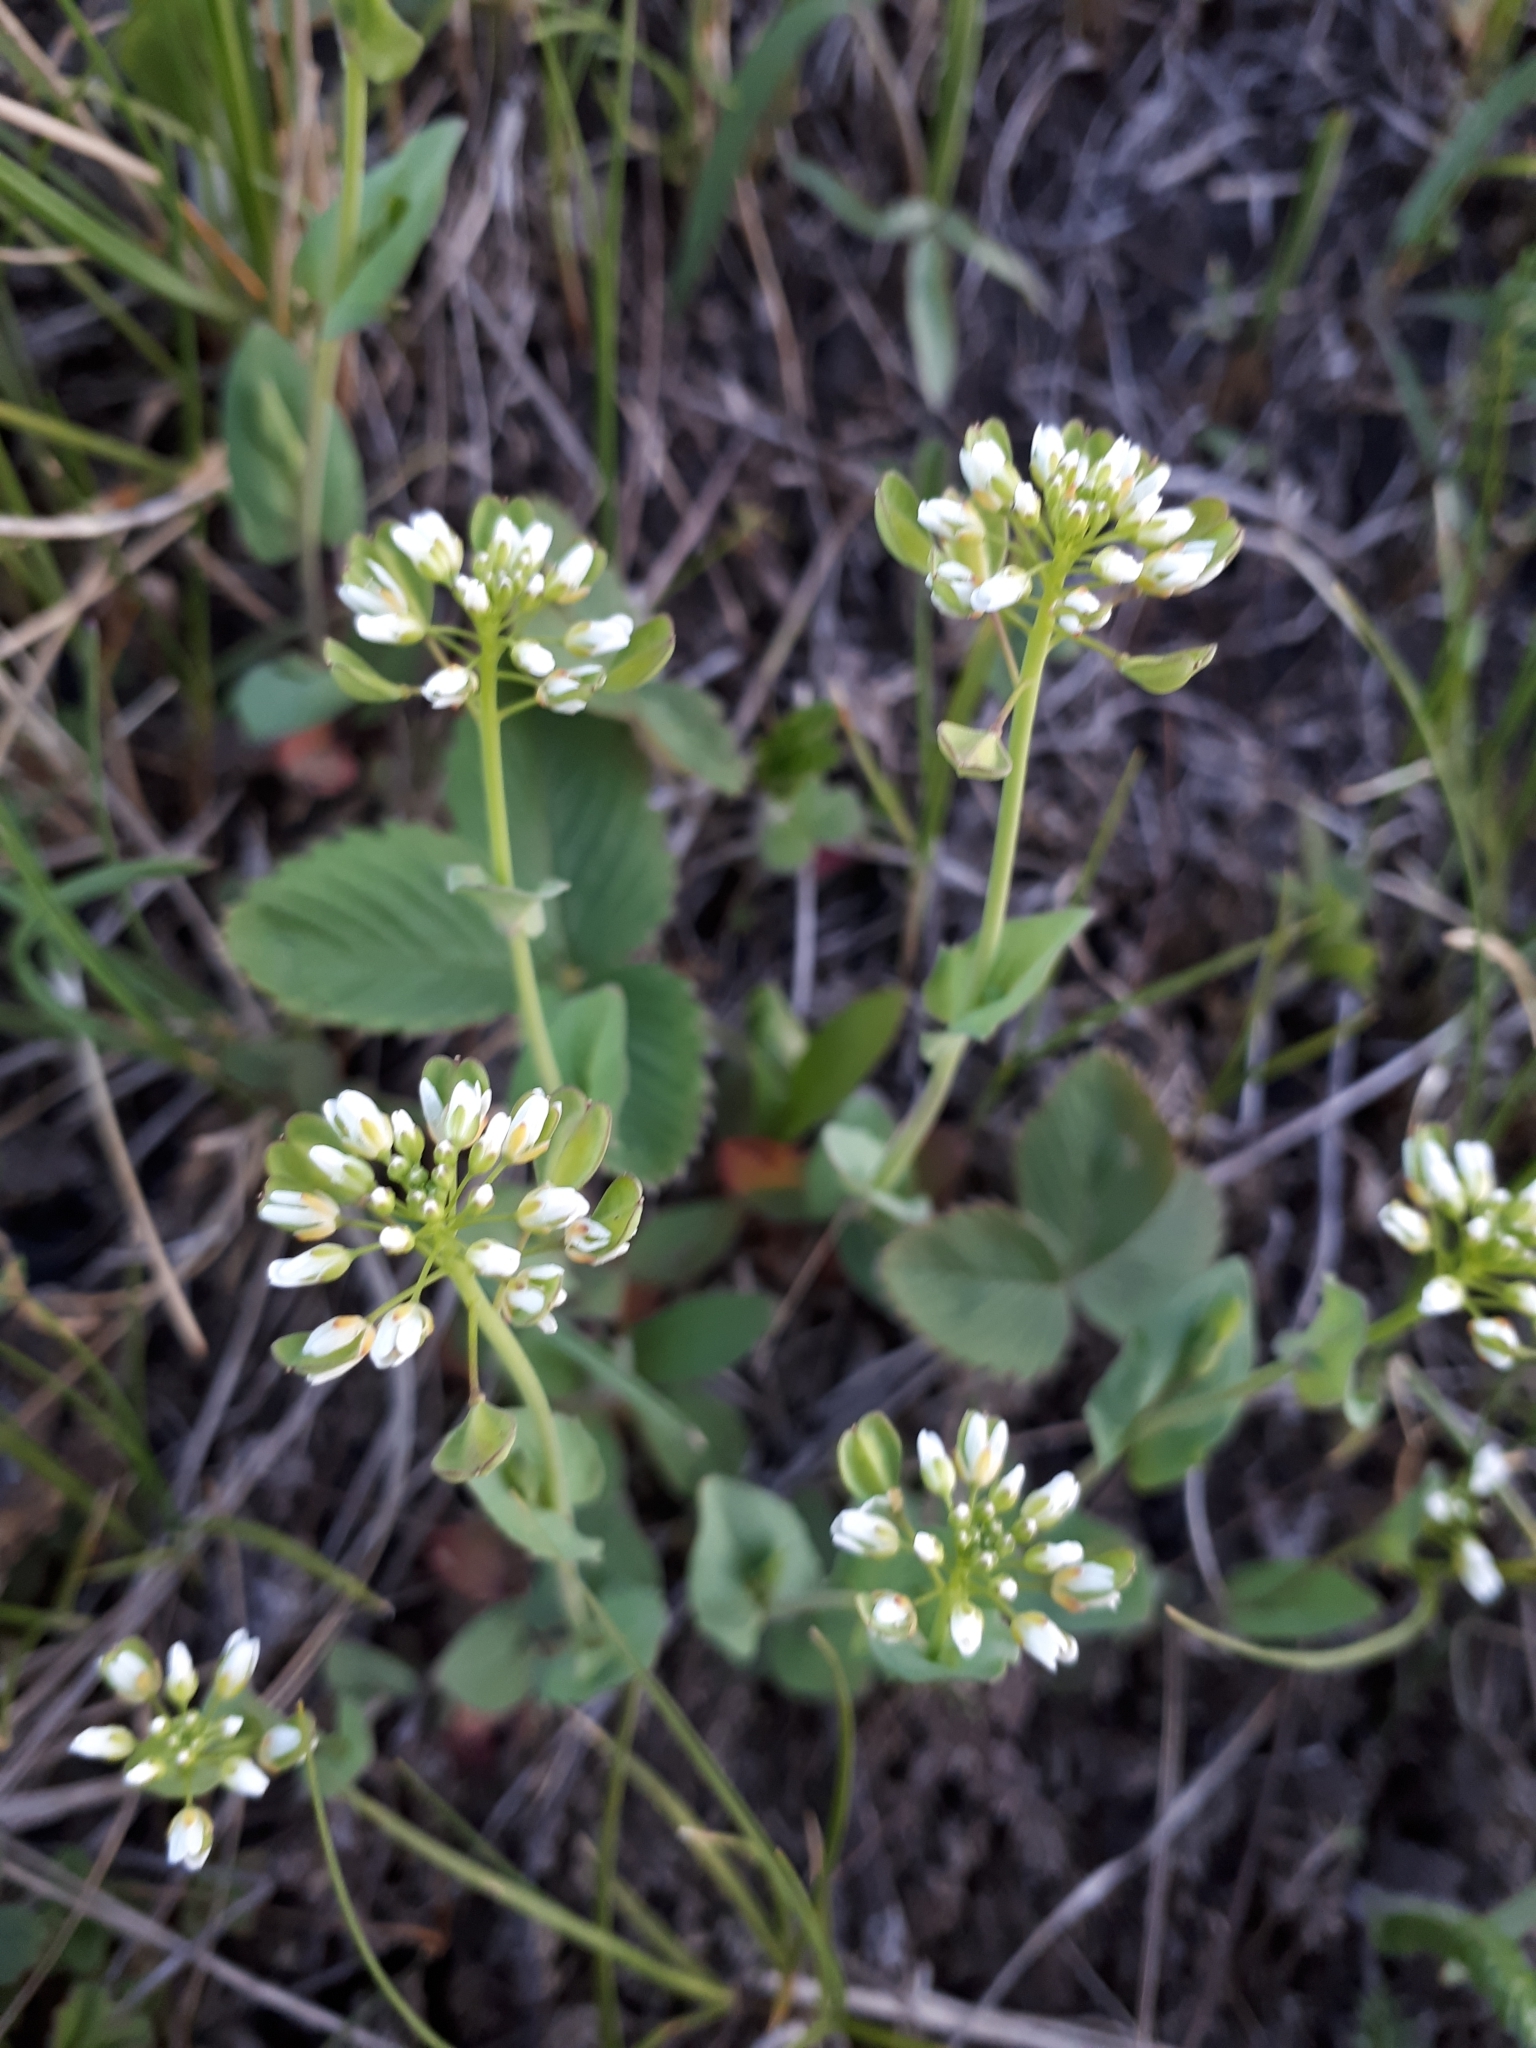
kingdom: Plantae
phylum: Tracheophyta
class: Magnoliopsida
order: Brassicales
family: Brassicaceae
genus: Noccaea
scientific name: Noccaea perfoliata
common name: Perfoliate pennycress
